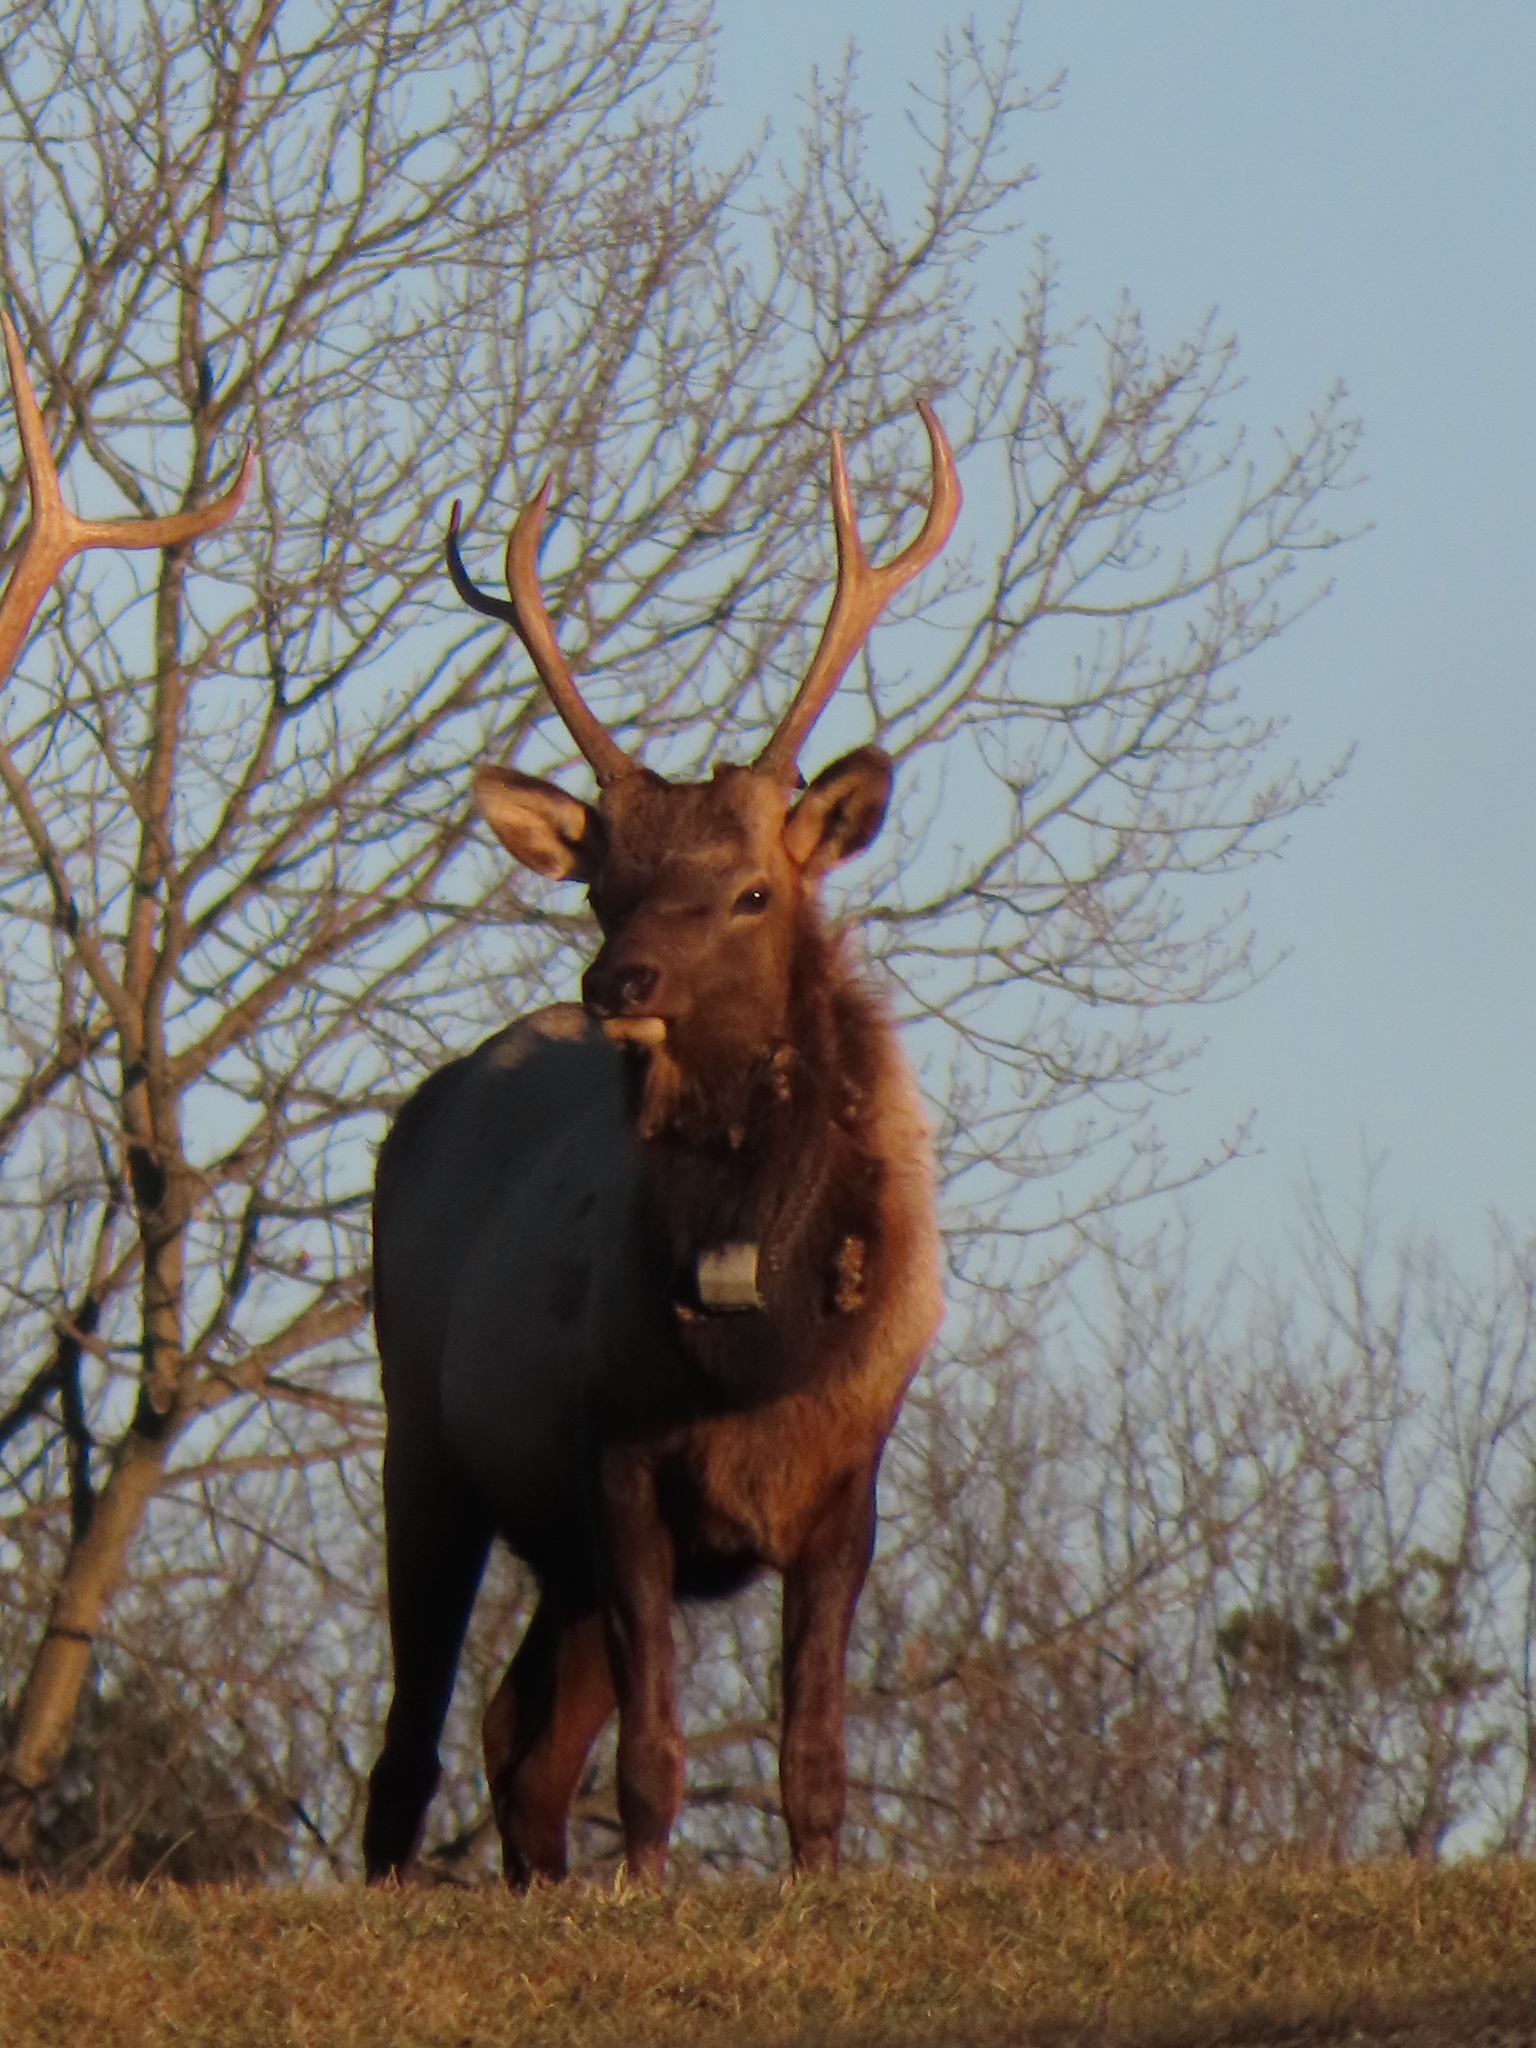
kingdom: Animalia
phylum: Chordata
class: Mammalia
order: Artiodactyla
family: Cervidae
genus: Cervus
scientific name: Cervus elaphus
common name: Red deer
